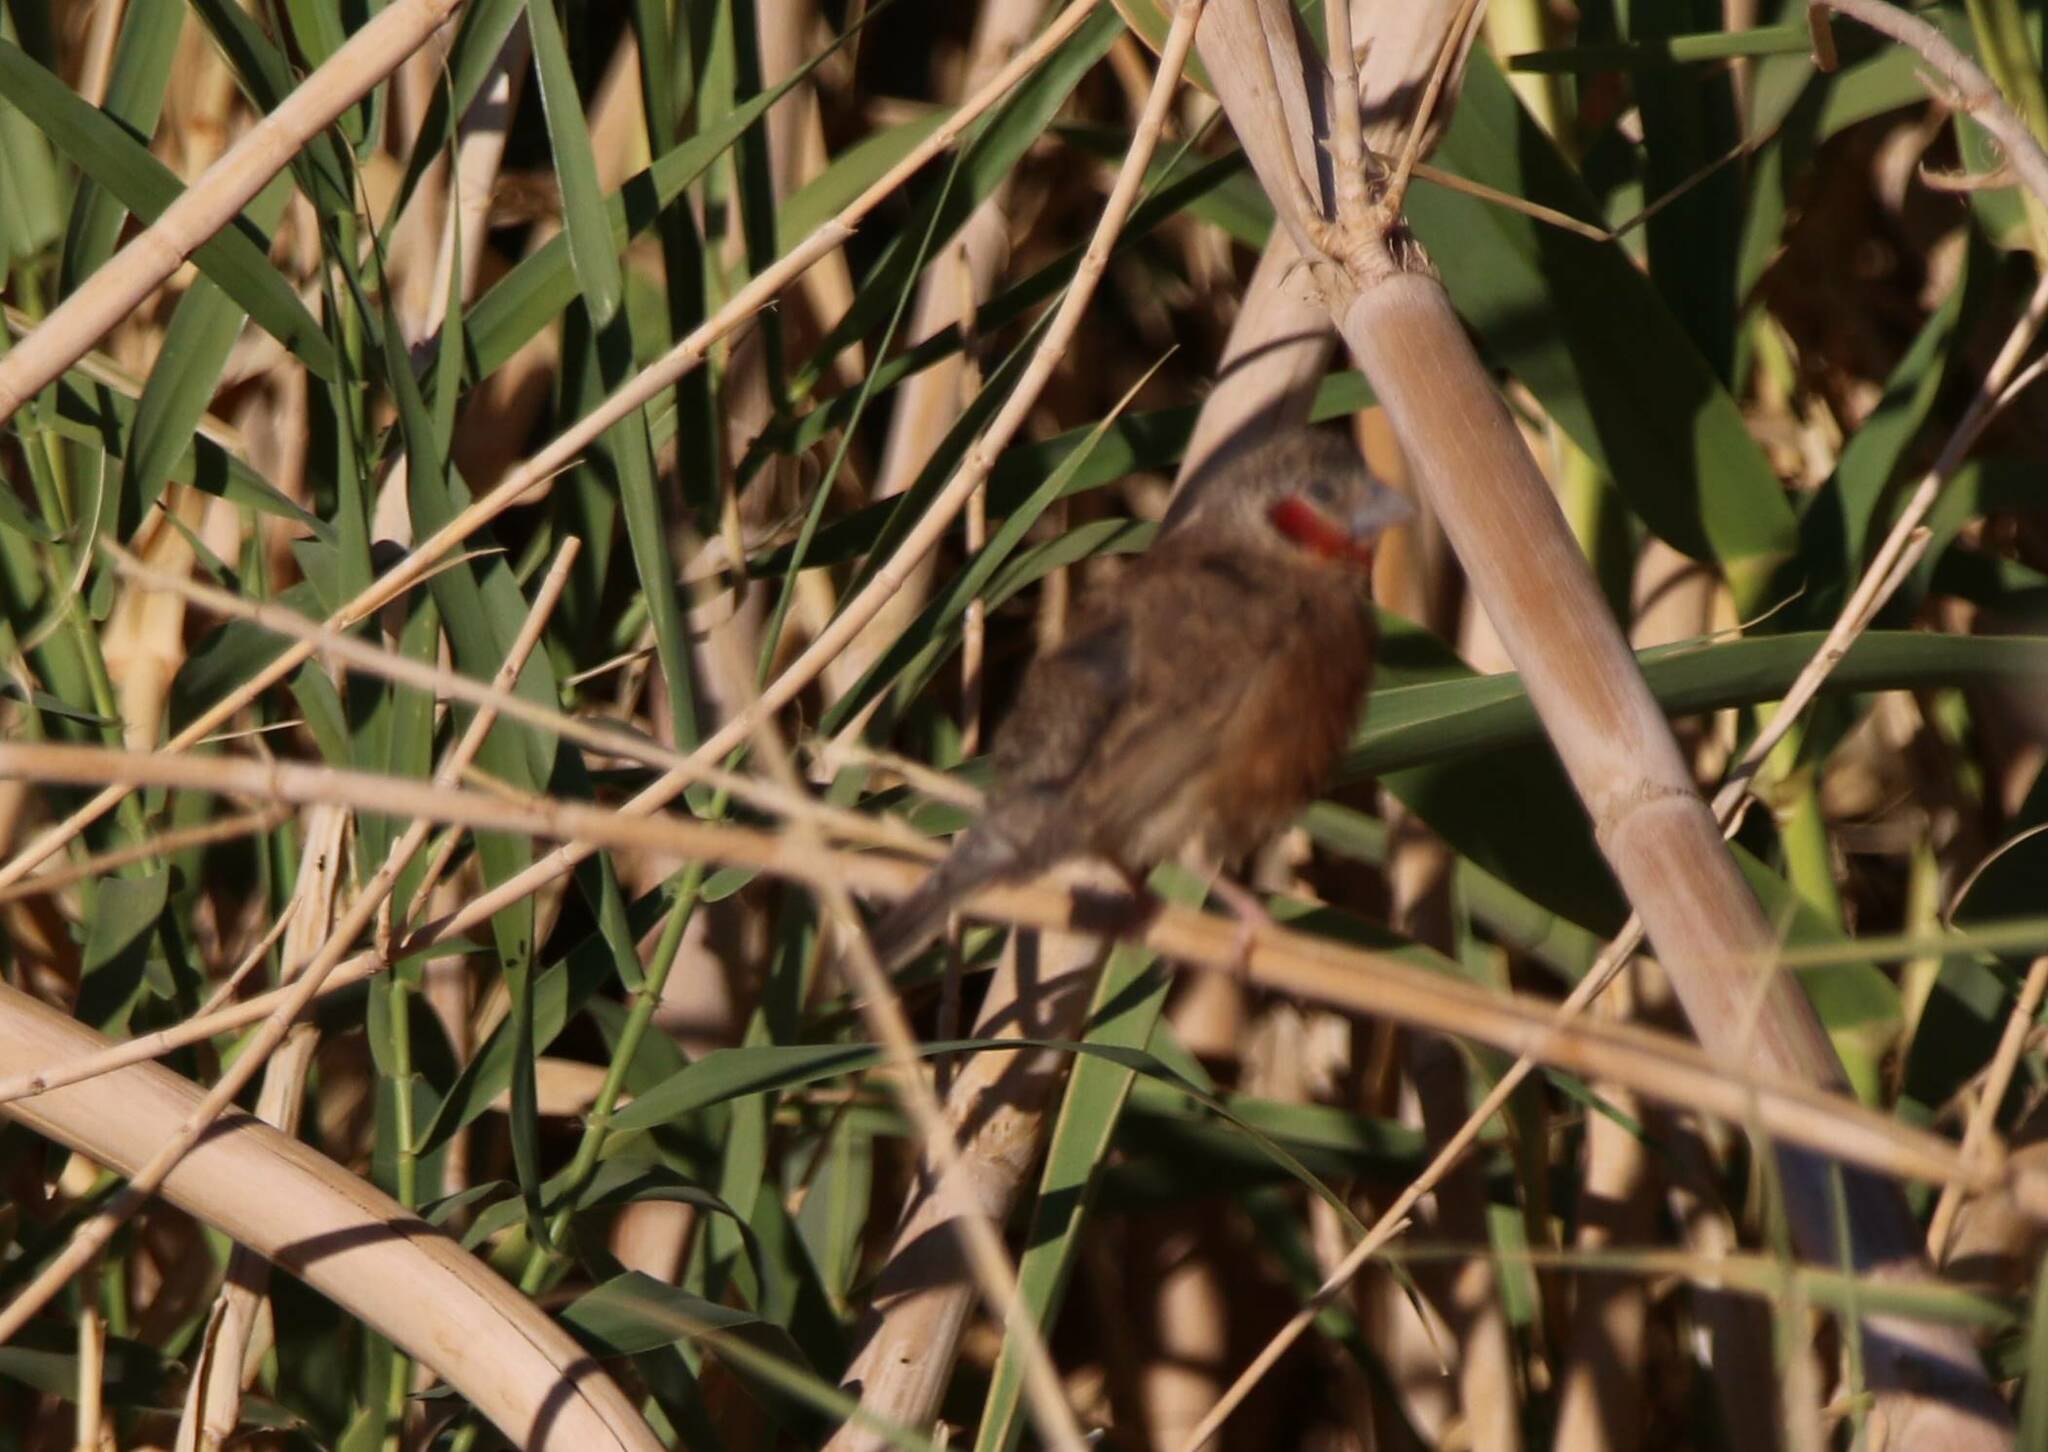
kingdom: Animalia
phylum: Chordata
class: Aves
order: Passeriformes
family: Estrildidae
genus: Amadina
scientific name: Amadina fasciata
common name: Cut-throat finch
